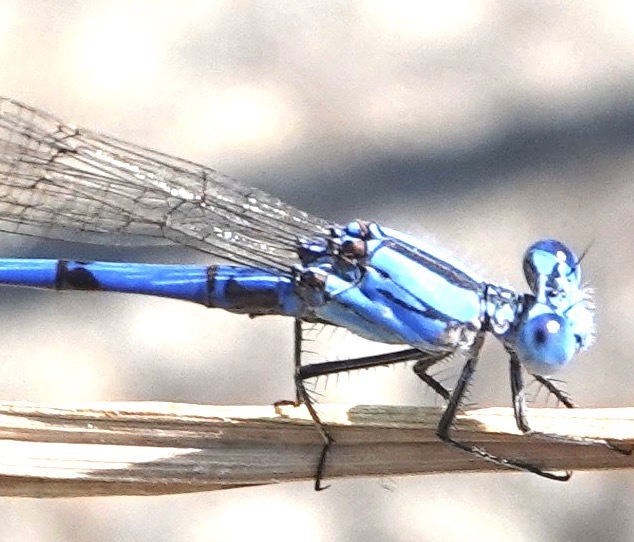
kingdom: Animalia
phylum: Arthropoda
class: Insecta
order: Odonata
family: Coenagrionidae
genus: Argia
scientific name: Argia agrioides
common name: California dancer
